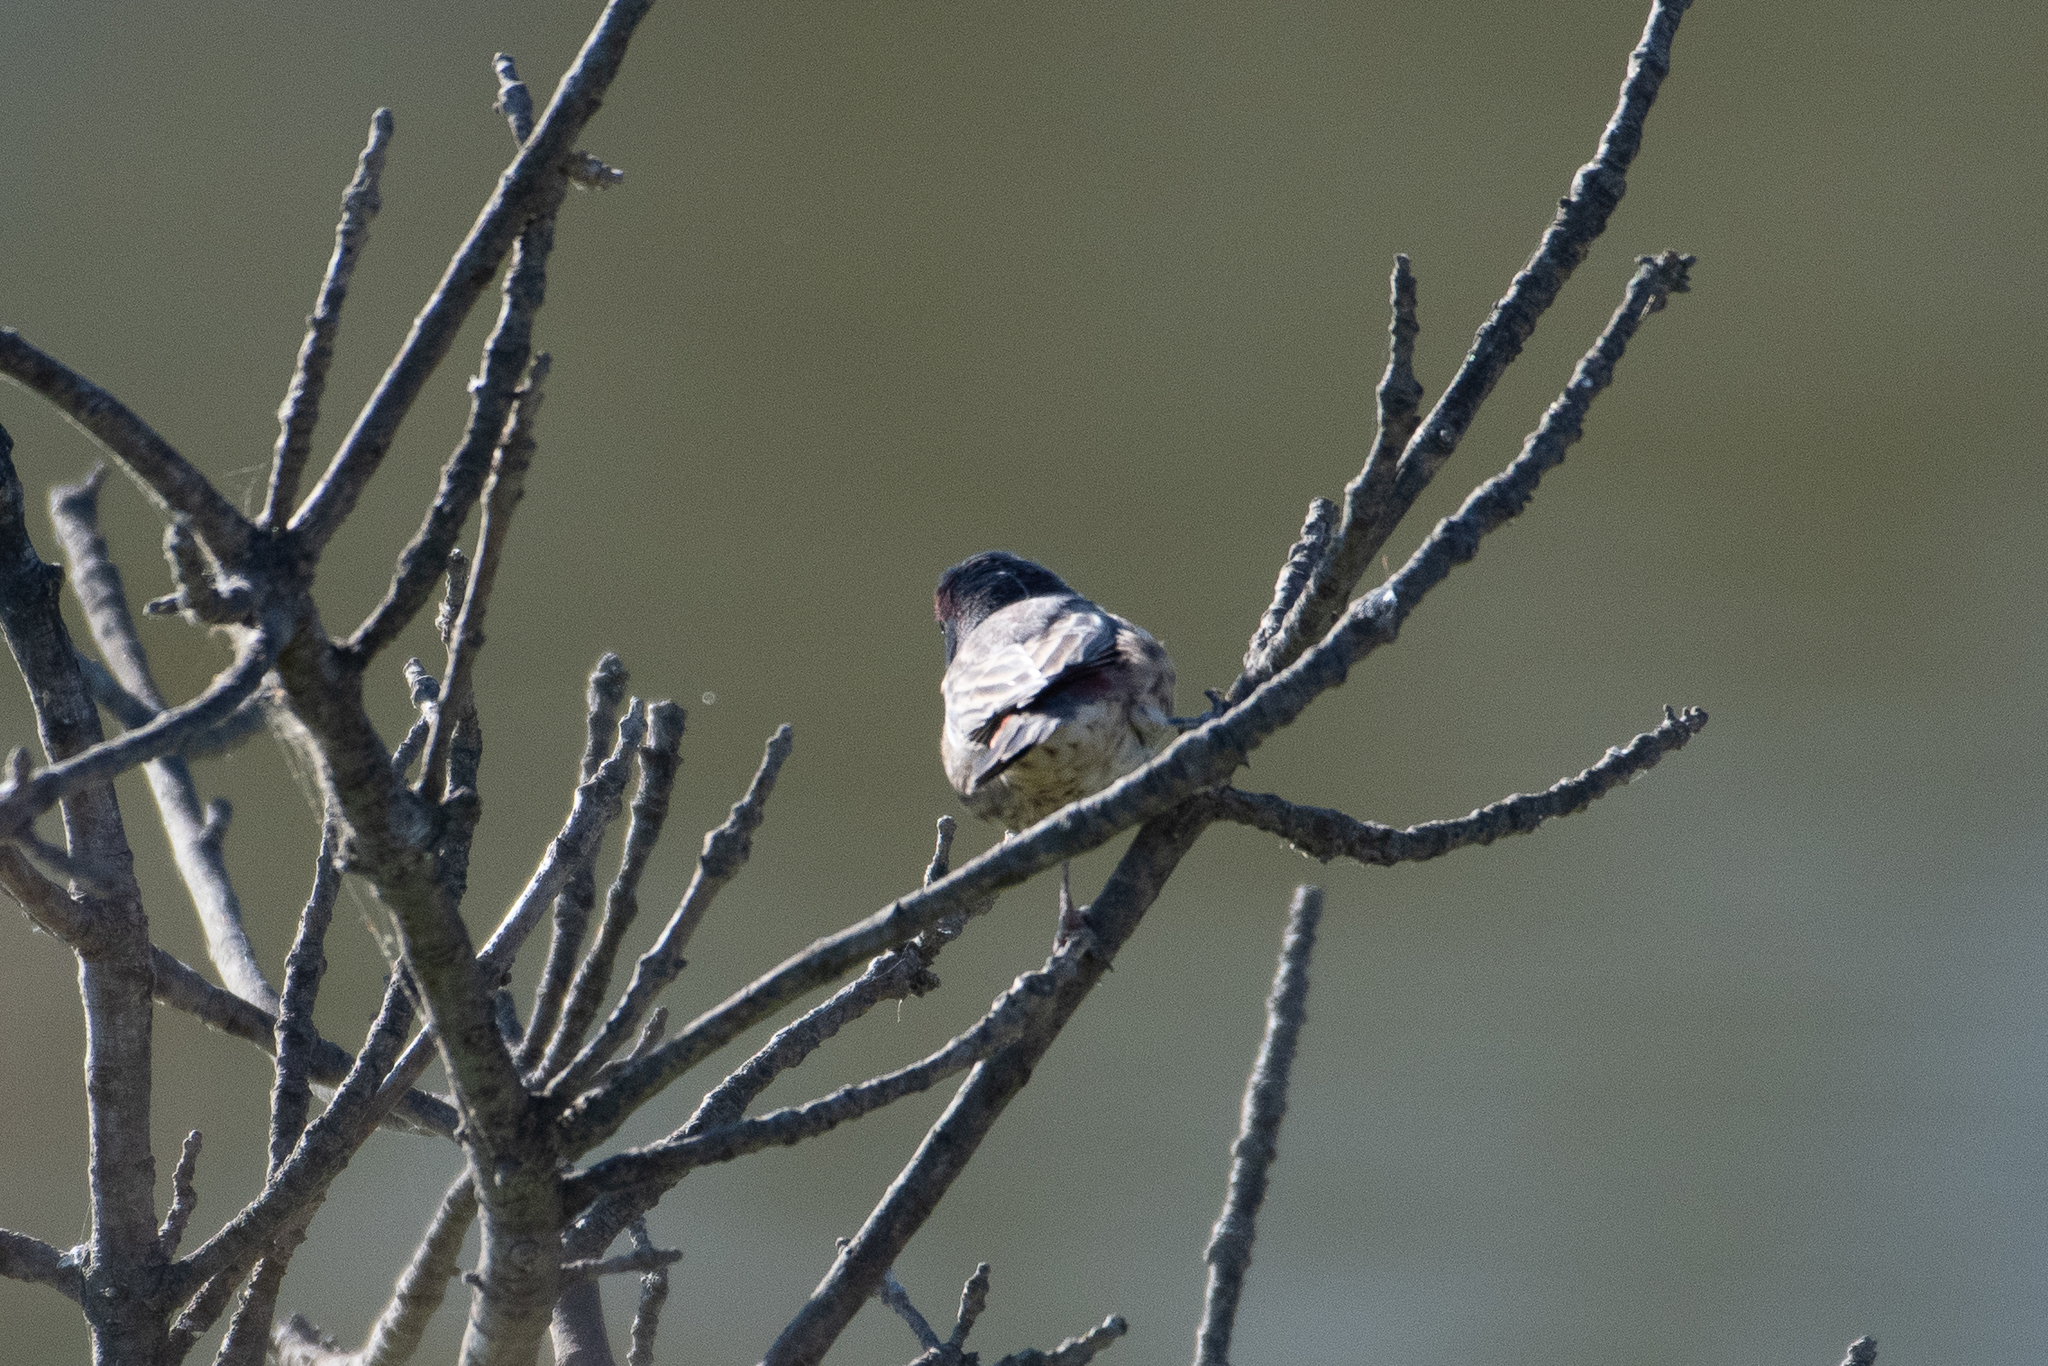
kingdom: Animalia
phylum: Chordata
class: Aves
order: Passeriformes
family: Fringillidae
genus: Haemorhous
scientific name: Haemorhous mexicanus
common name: House finch
